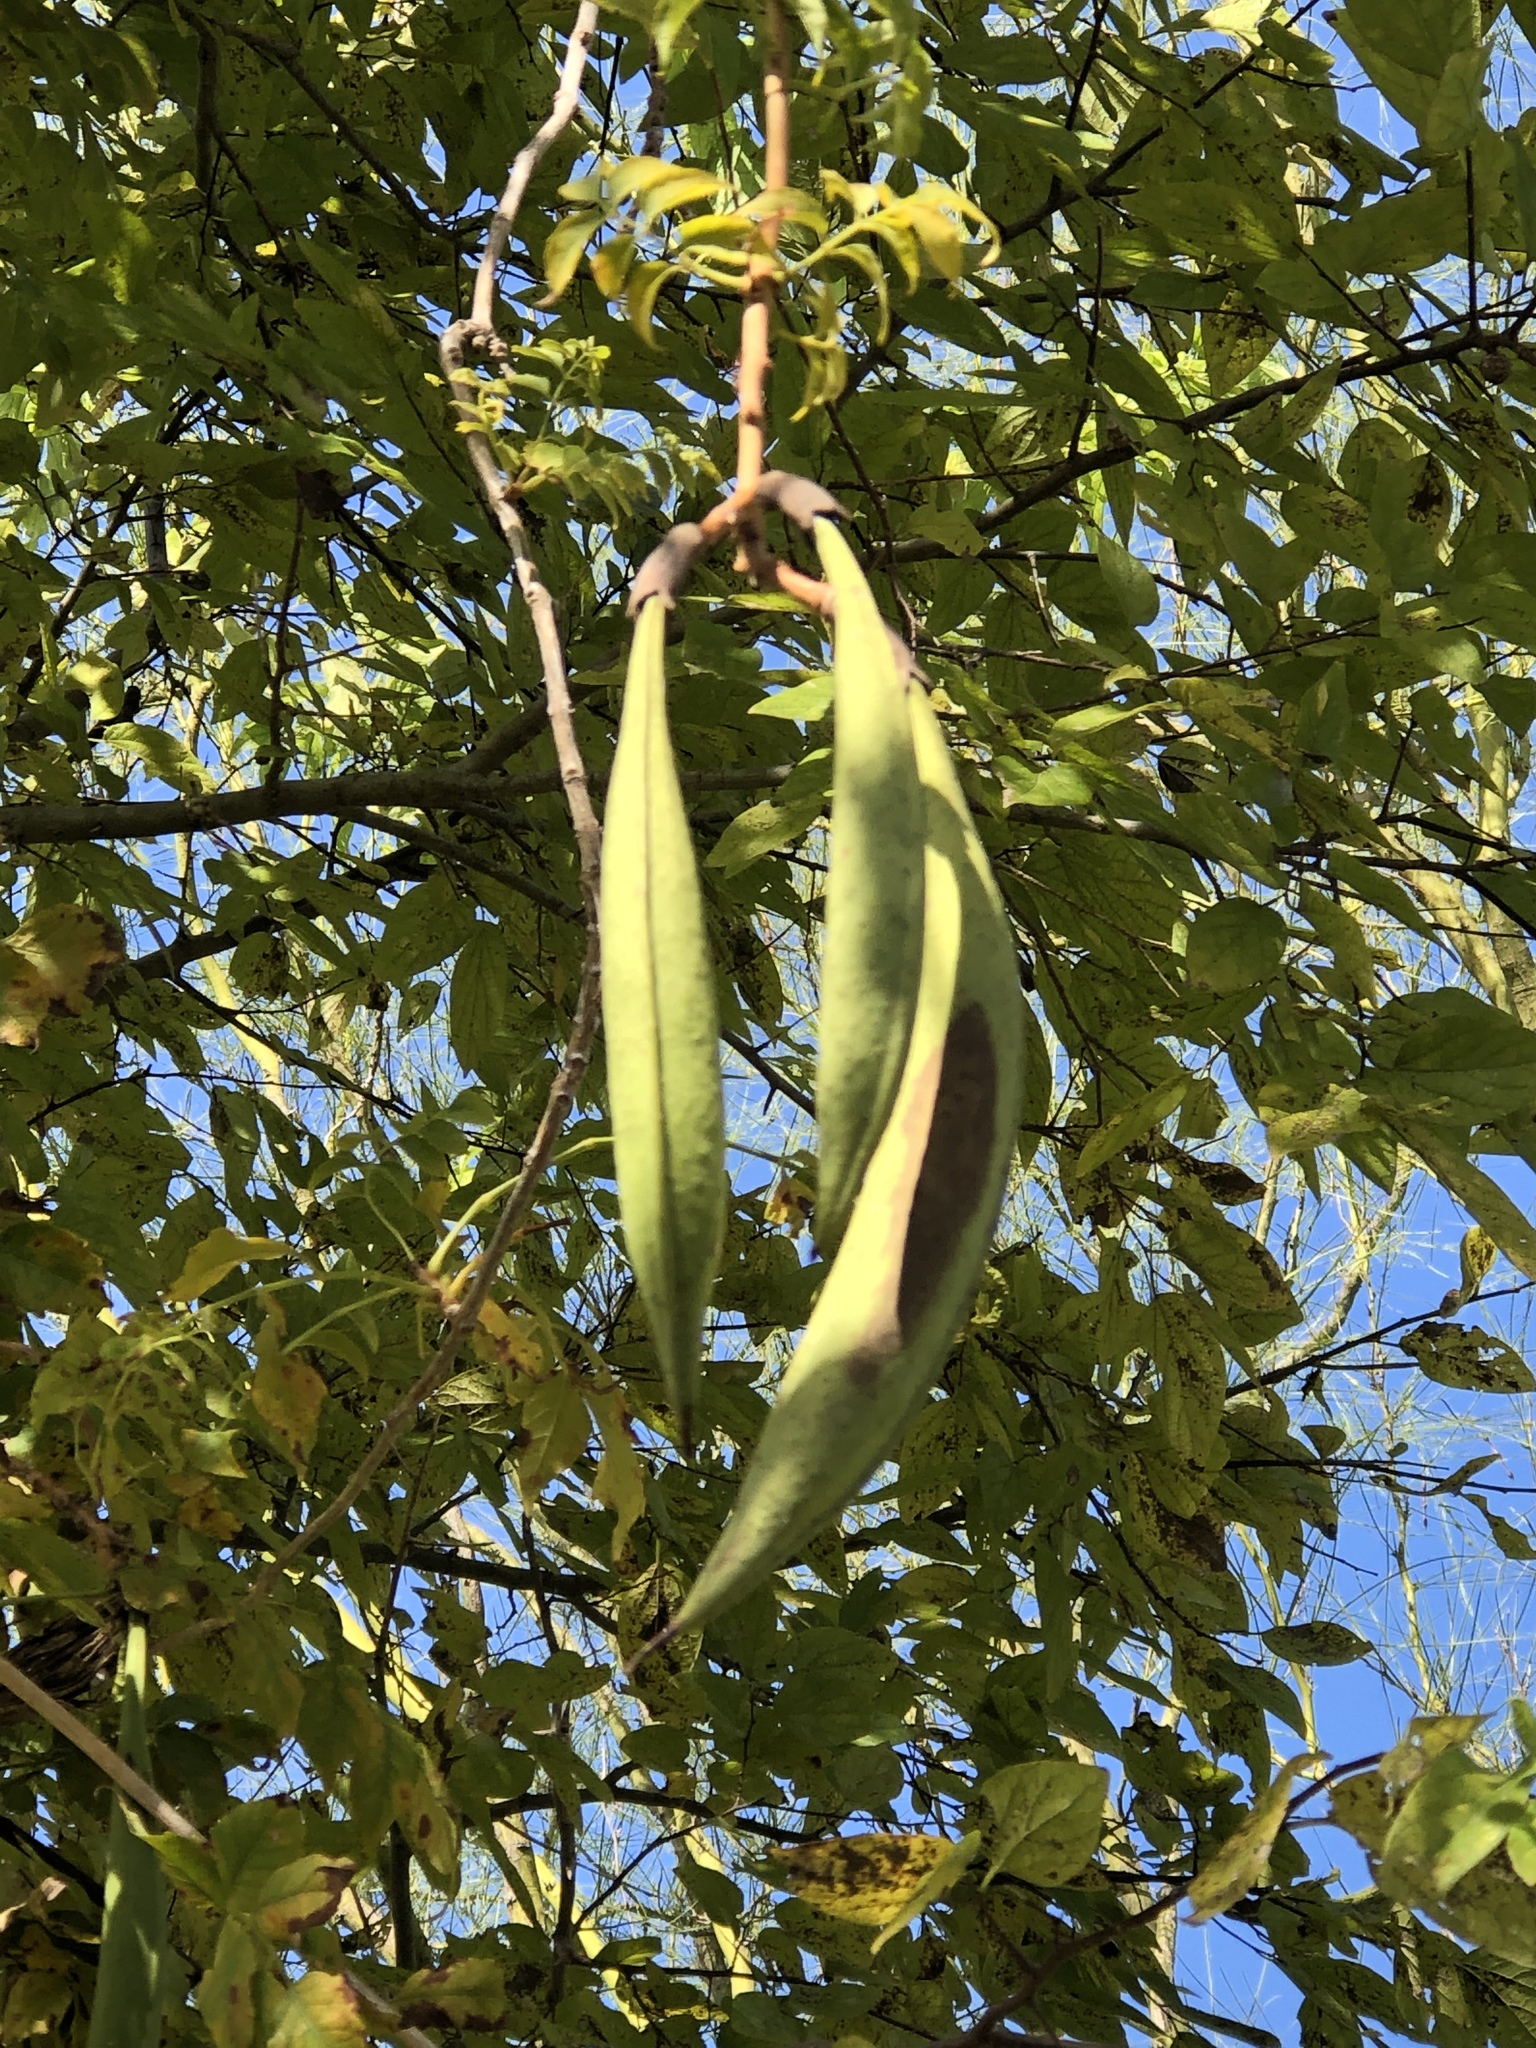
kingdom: Plantae
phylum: Tracheophyta
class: Magnoliopsida
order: Lamiales
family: Bignoniaceae
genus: Campsis
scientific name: Campsis radicans
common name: Trumpet-creeper
